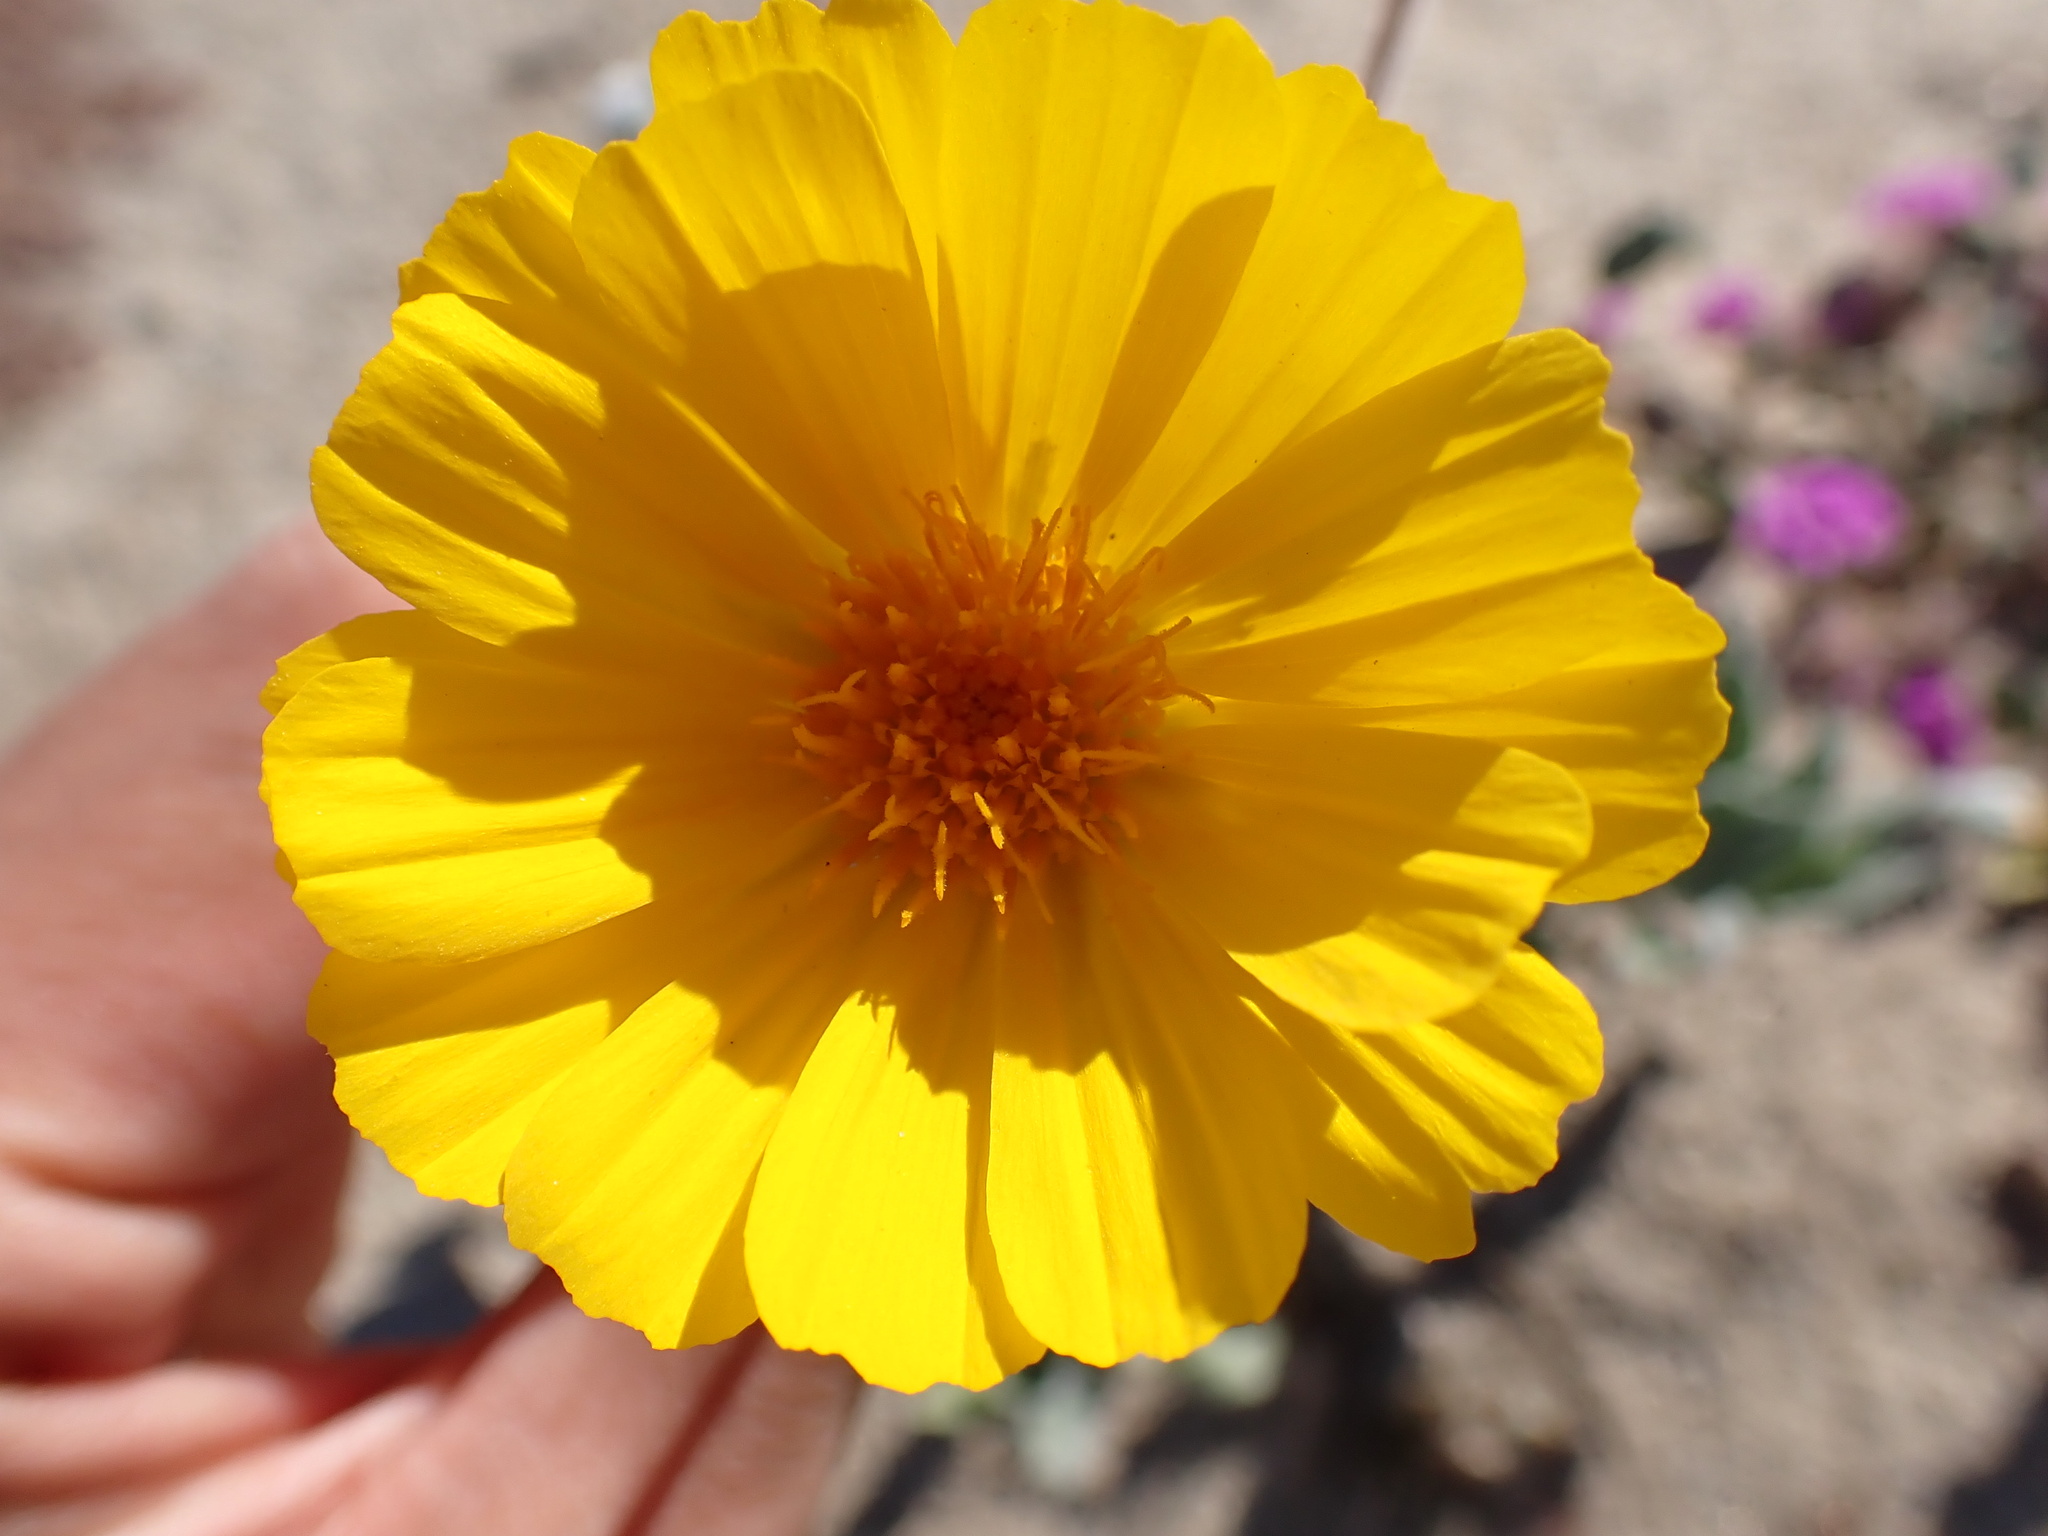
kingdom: Plantae
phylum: Tracheophyta
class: Magnoliopsida
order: Asterales
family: Asteraceae
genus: Geraea
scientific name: Geraea canescens
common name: Desert-gold
